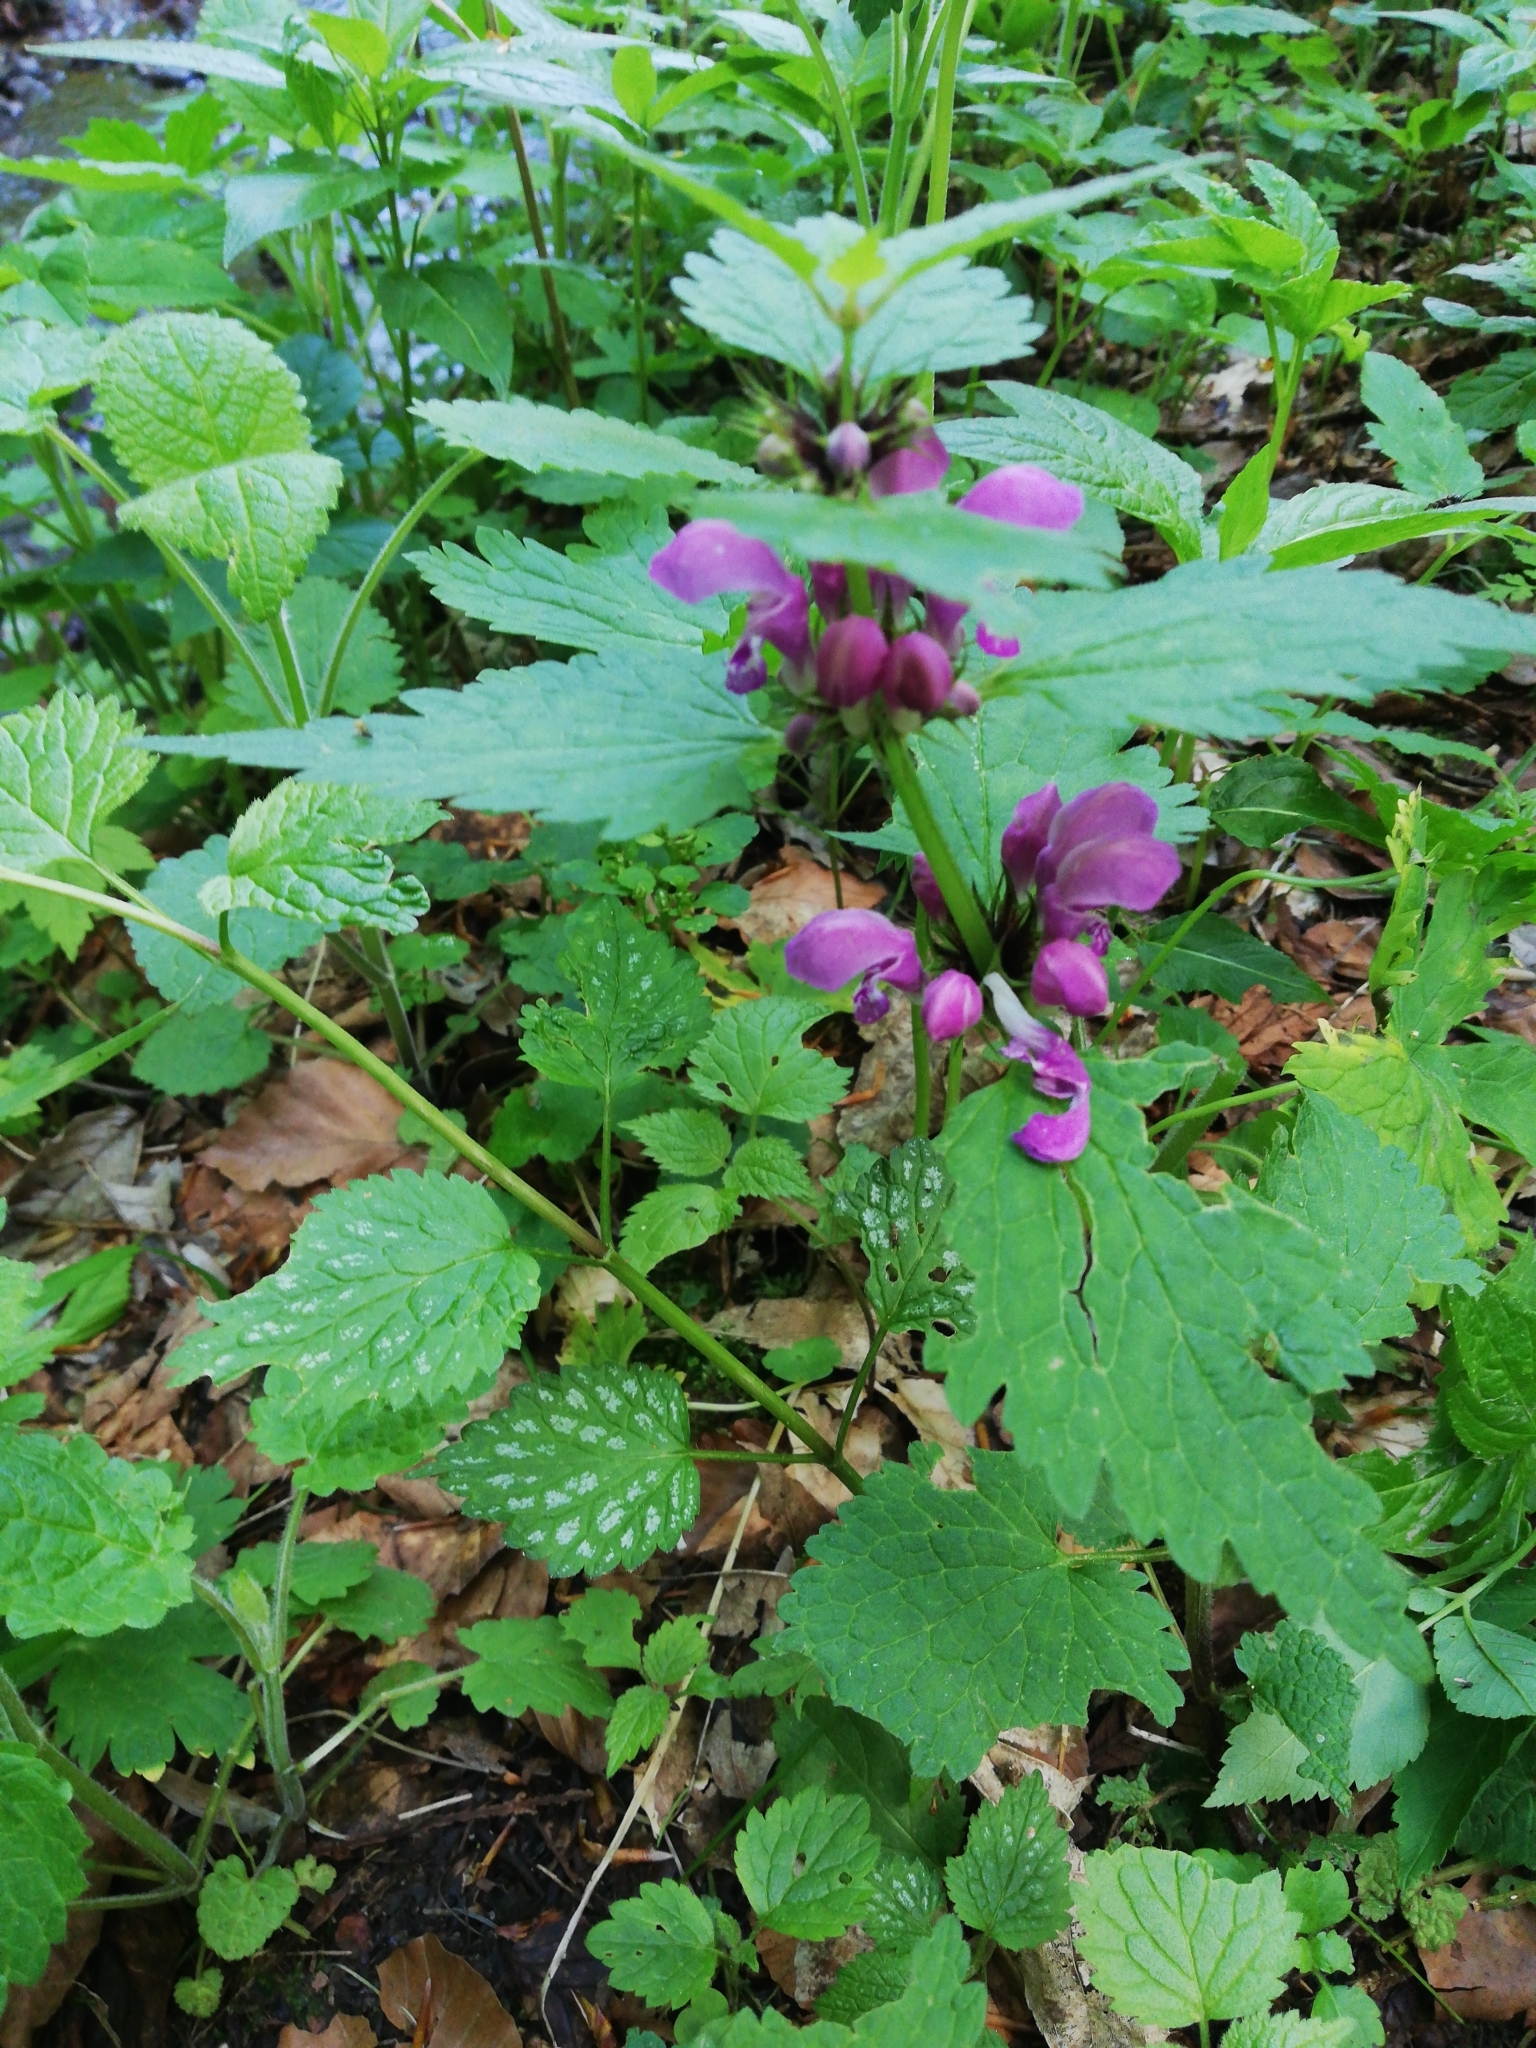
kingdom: Plantae
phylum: Tracheophyta
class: Magnoliopsida
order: Lamiales
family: Lamiaceae
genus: Lamium
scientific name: Lamium maculatum
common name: Spotted dead-nettle
